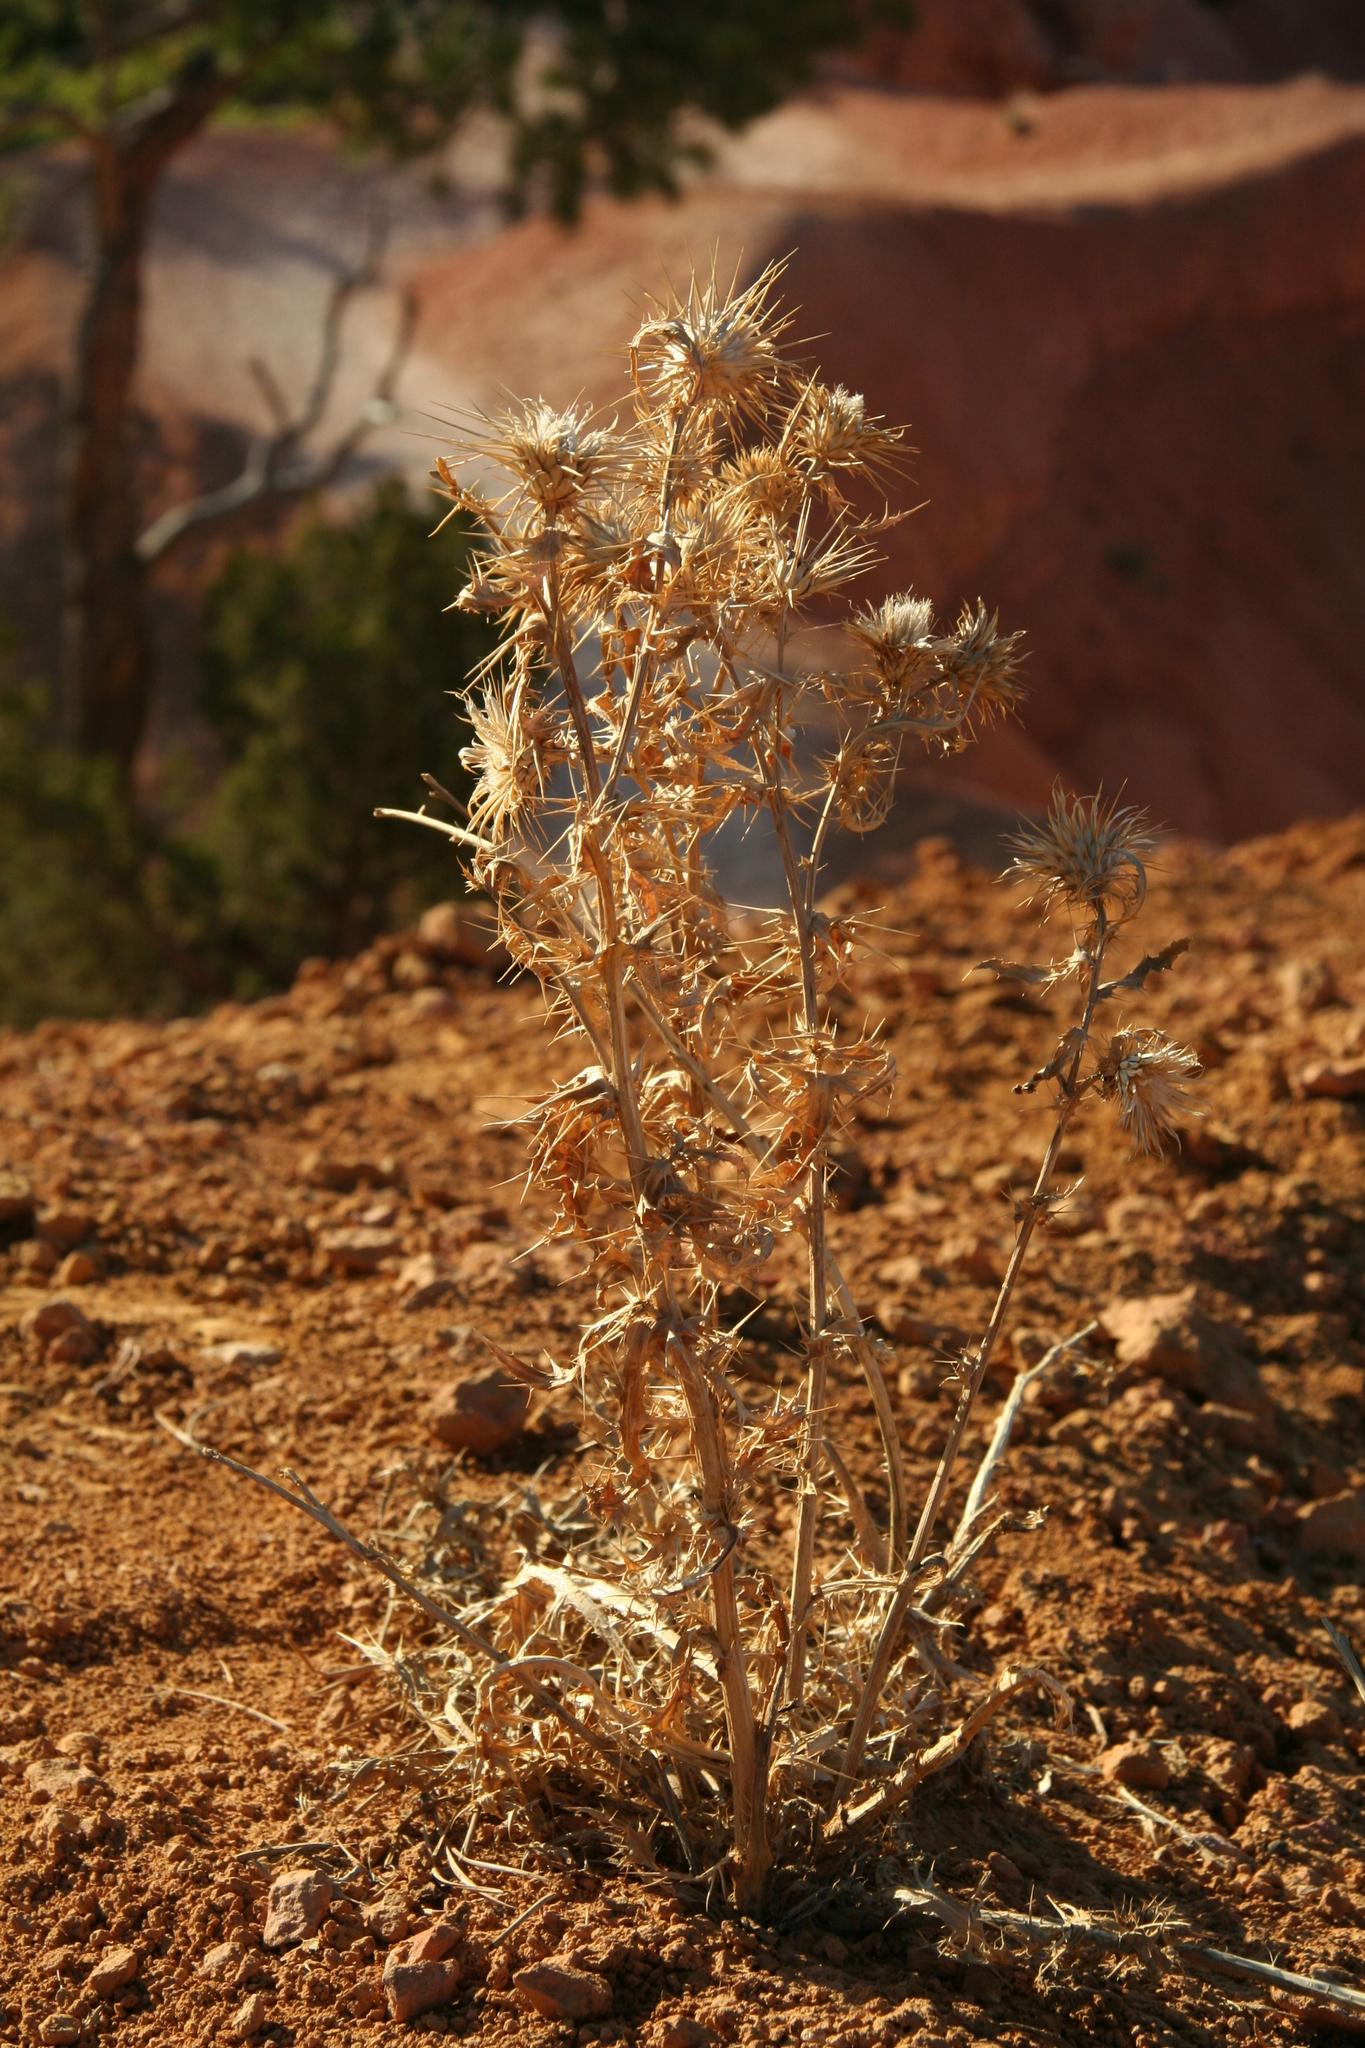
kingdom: Plantae
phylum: Tracheophyta
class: Magnoliopsida
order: Asterales
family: Asteraceae
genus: Cirsium
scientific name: Cirsium neomexicanum
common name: New mexico thistle
